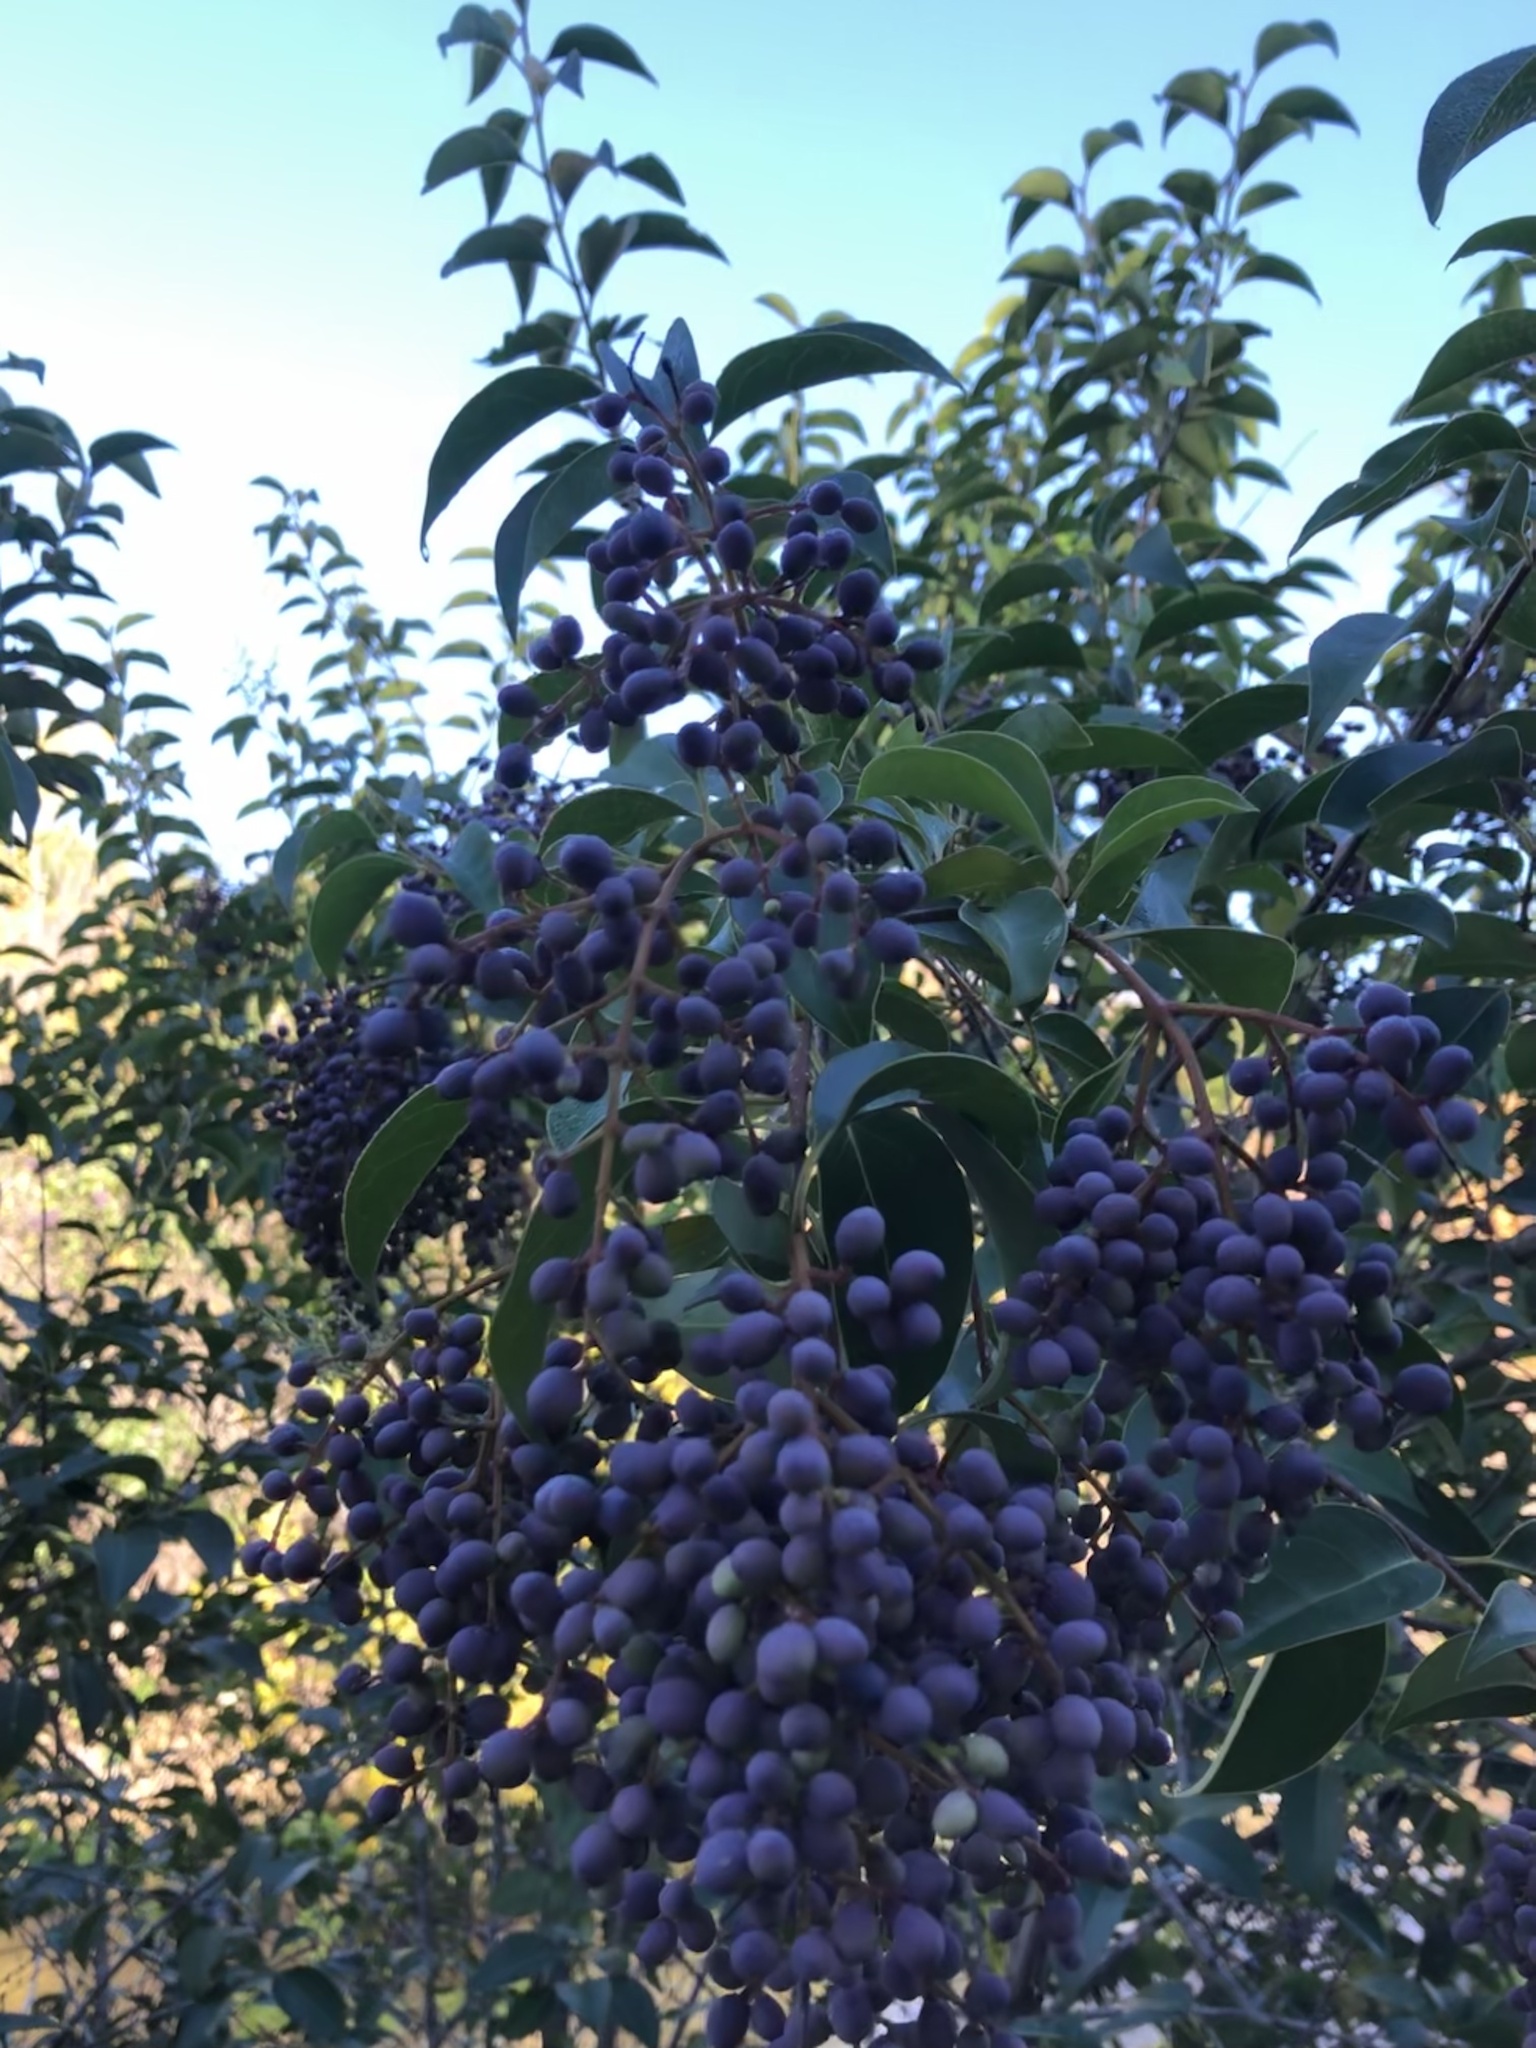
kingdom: Plantae
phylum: Tracheophyta
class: Magnoliopsida
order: Lamiales
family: Oleaceae
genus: Ligustrum
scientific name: Ligustrum lucidum
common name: Glossy privet
